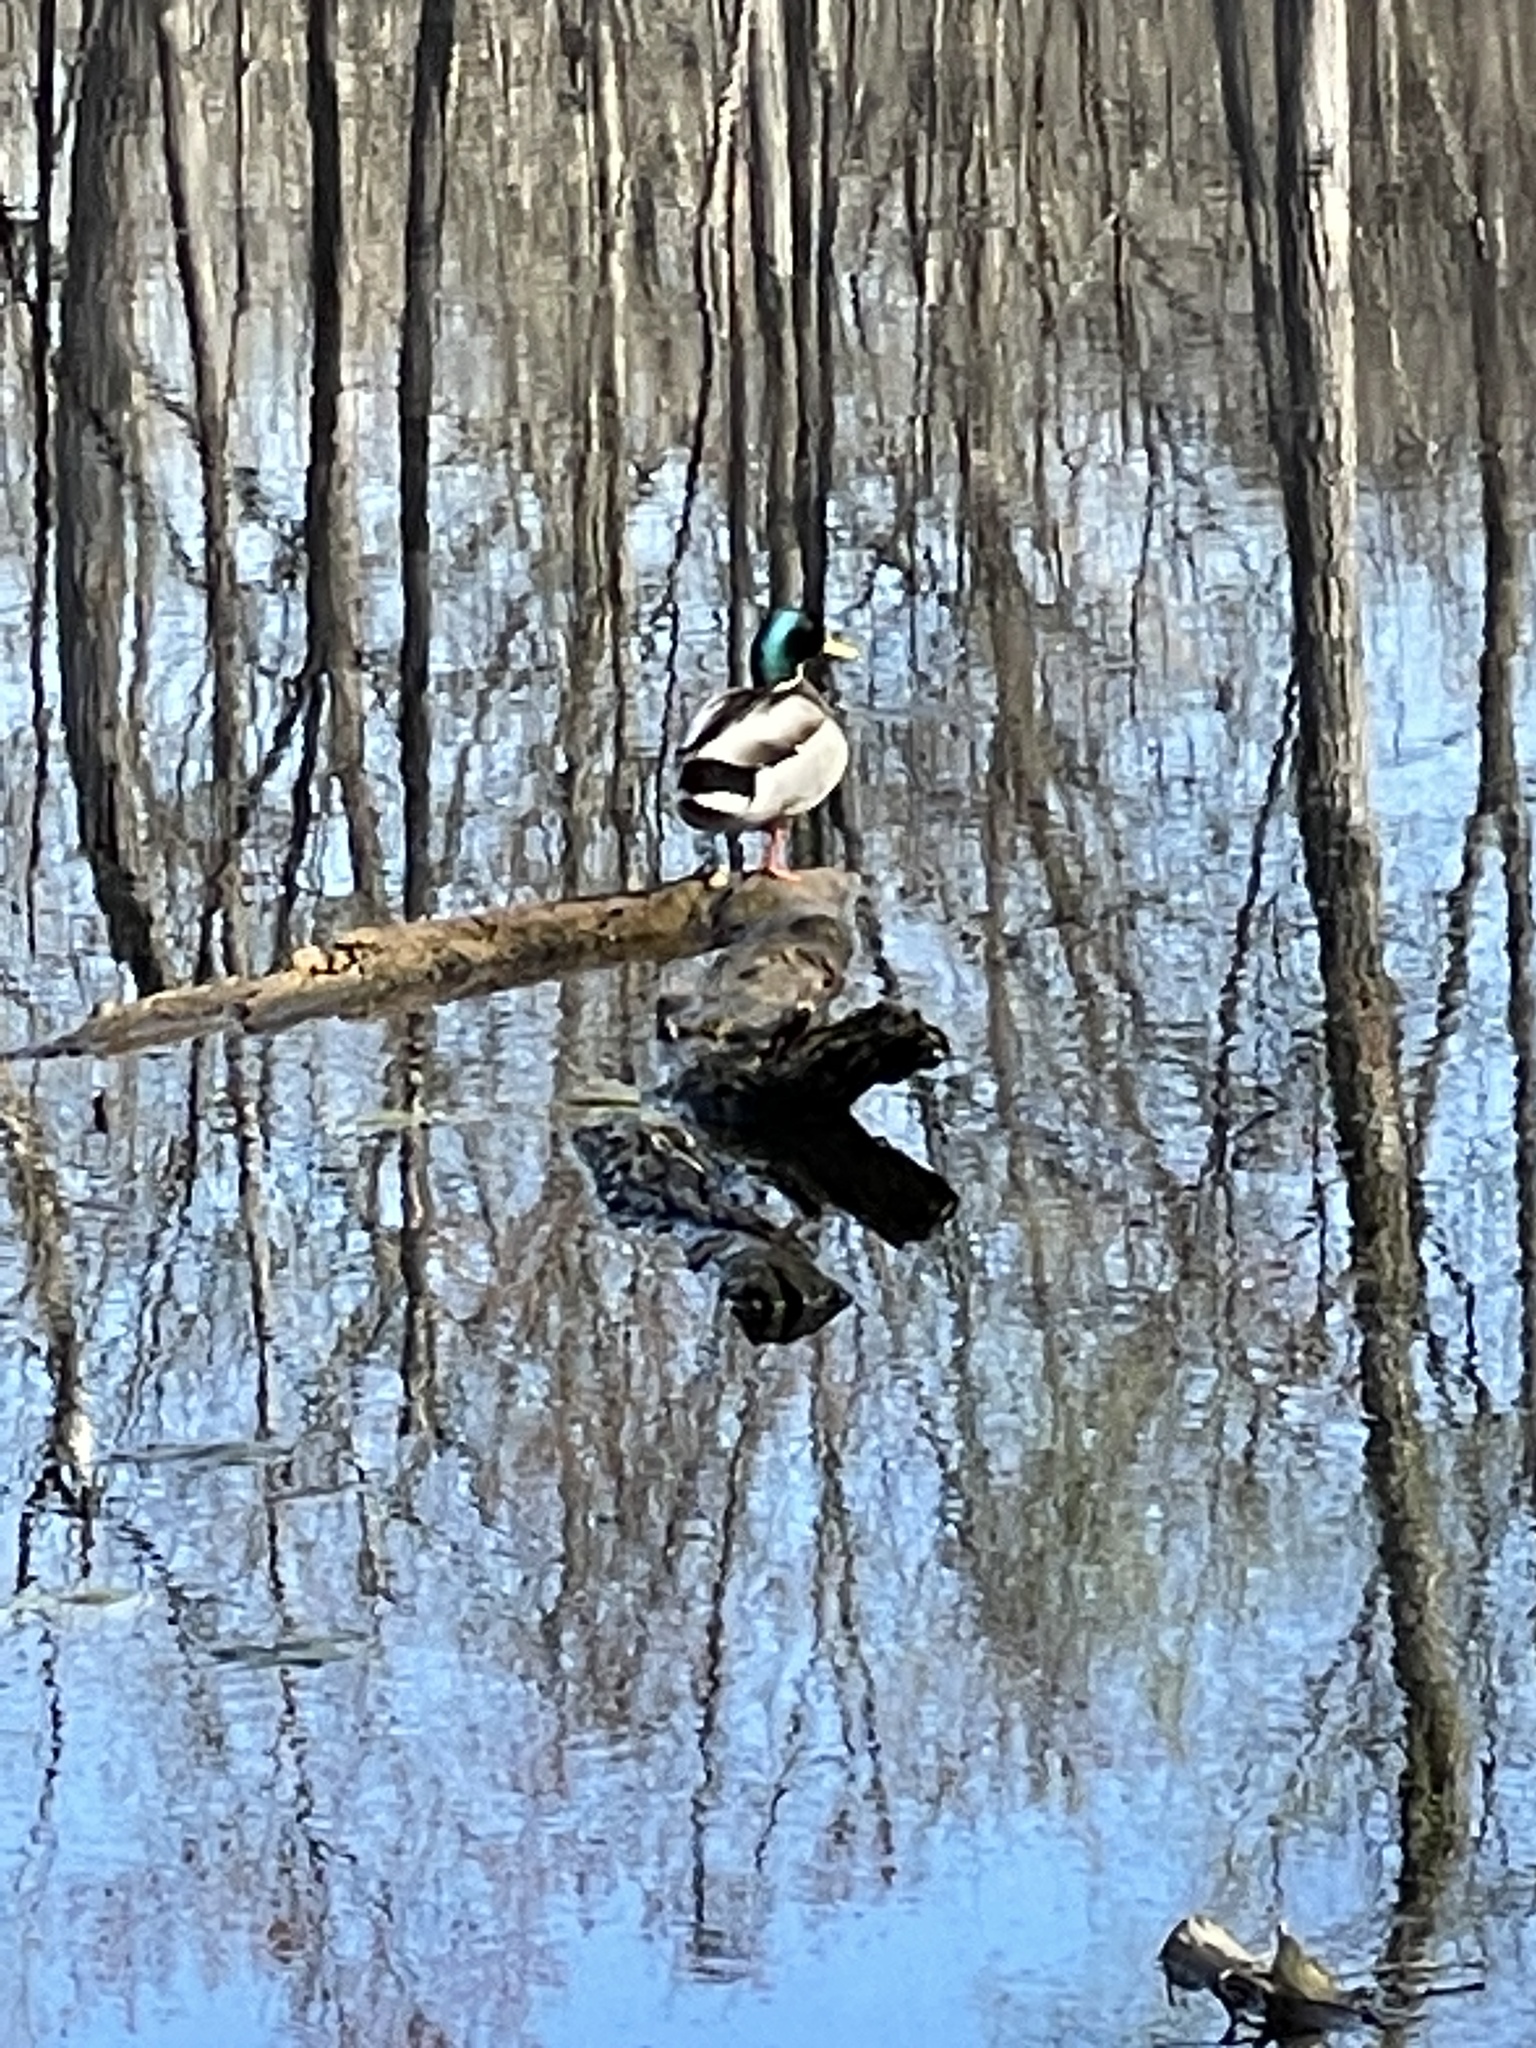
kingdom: Animalia
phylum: Chordata
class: Aves
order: Anseriformes
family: Anatidae
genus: Anas
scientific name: Anas platyrhynchos
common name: Mallard
